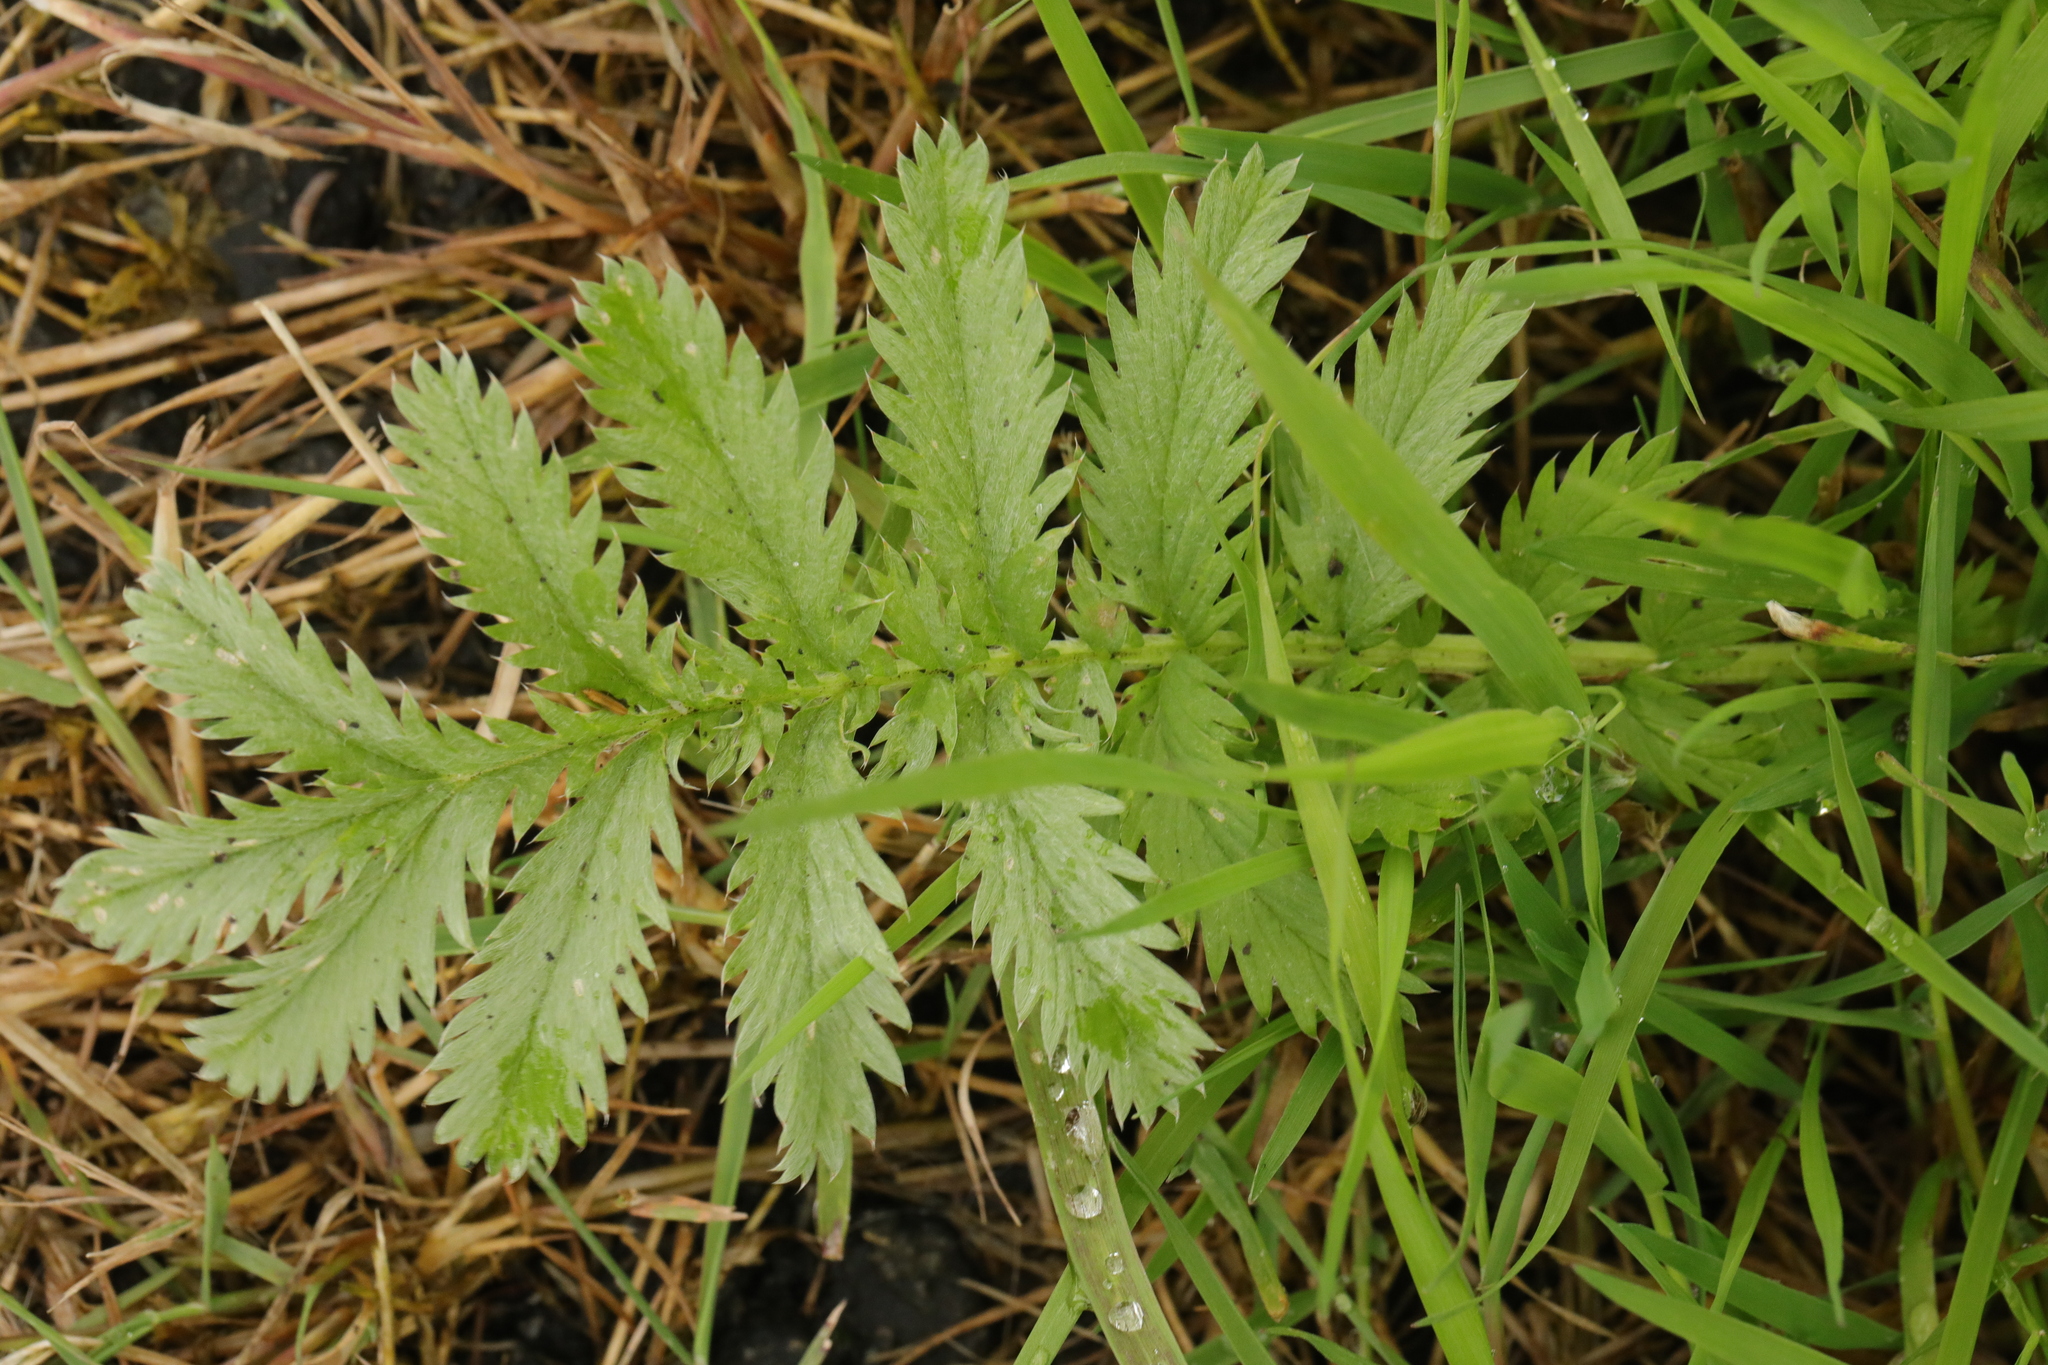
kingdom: Plantae
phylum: Tracheophyta
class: Magnoliopsida
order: Rosales
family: Rosaceae
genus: Argentina
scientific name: Argentina anserina
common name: Common silverweed
